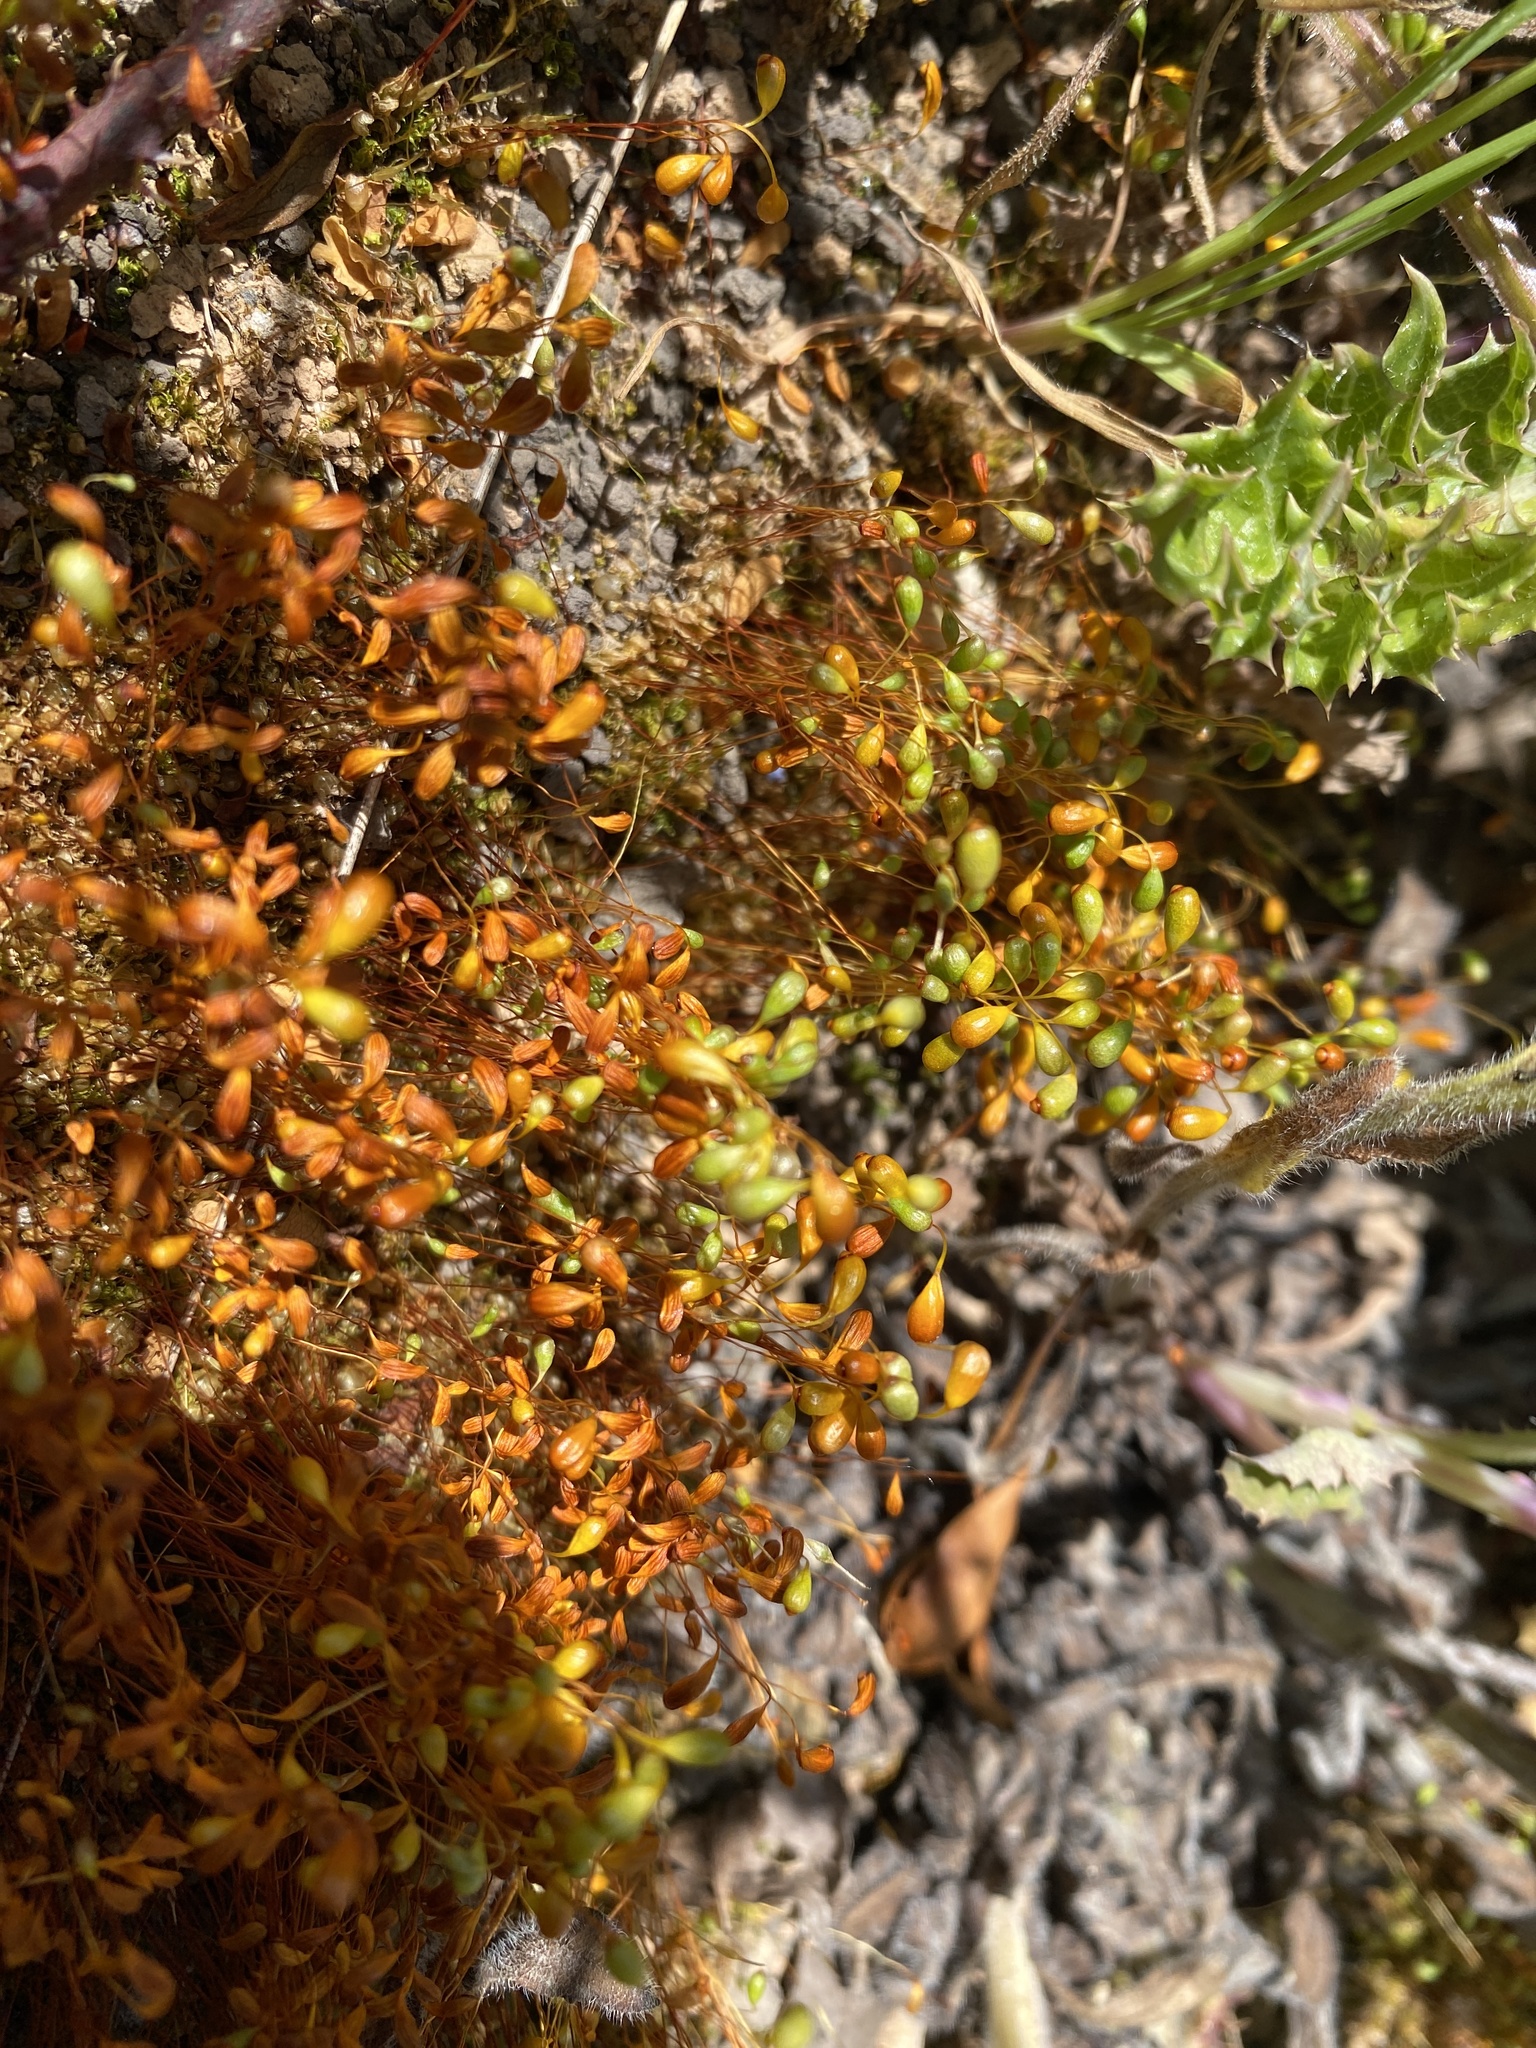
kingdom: Plantae
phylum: Bryophyta
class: Bryopsida
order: Funariales
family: Funariaceae
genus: Funaria
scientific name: Funaria hygrometrica
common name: Common cord moss
